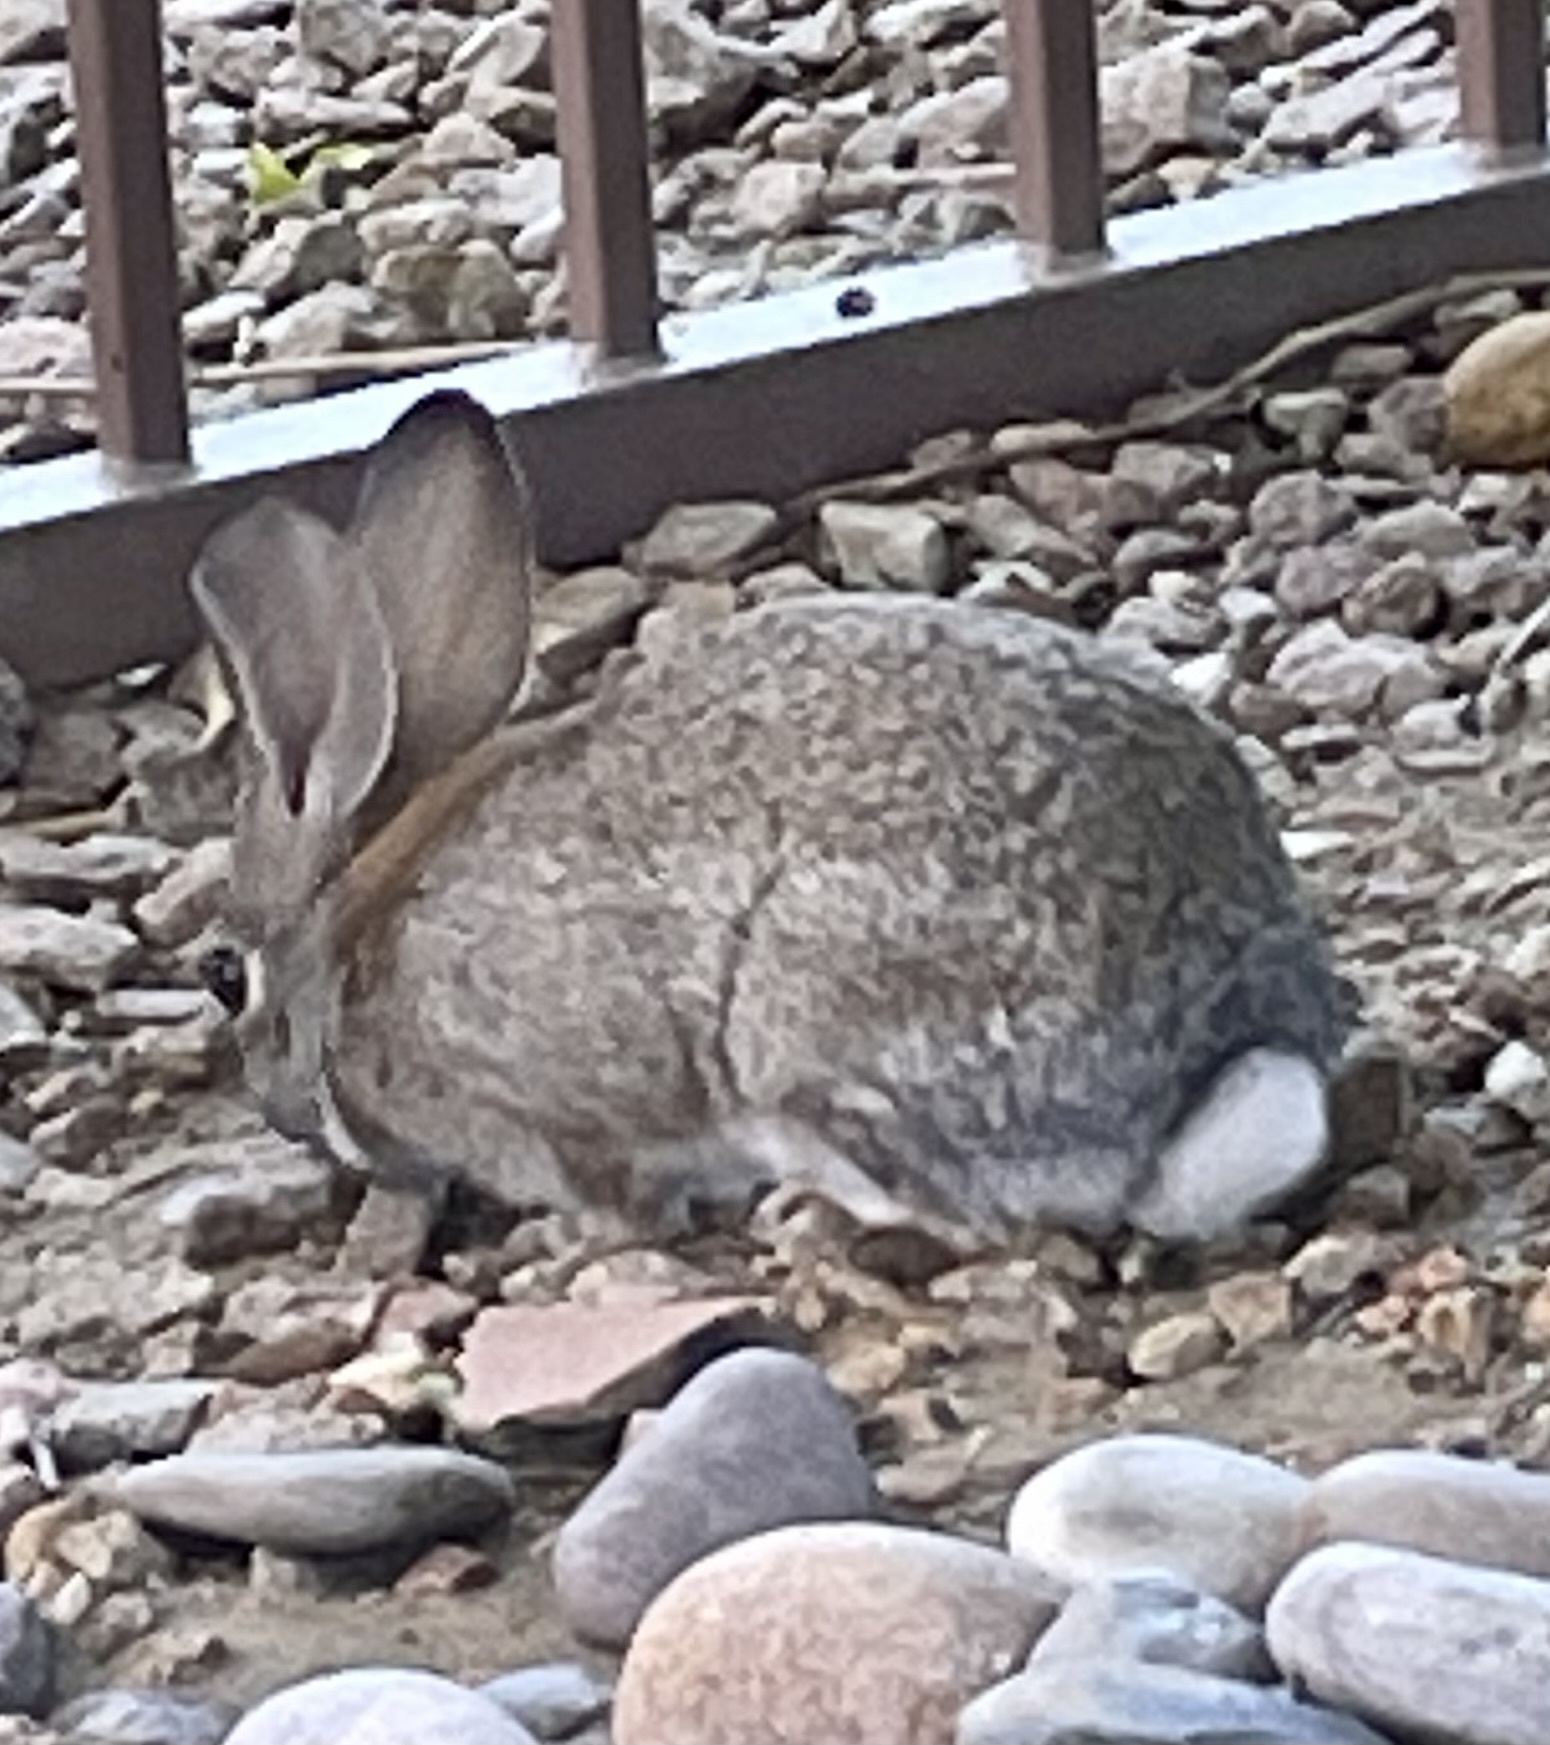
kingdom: Animalia
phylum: Chordata
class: Mammalia
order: Lagomorpha
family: Leporidae
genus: Sylvilagus
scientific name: Sylvilagus audubonii
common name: Desert cottontail
